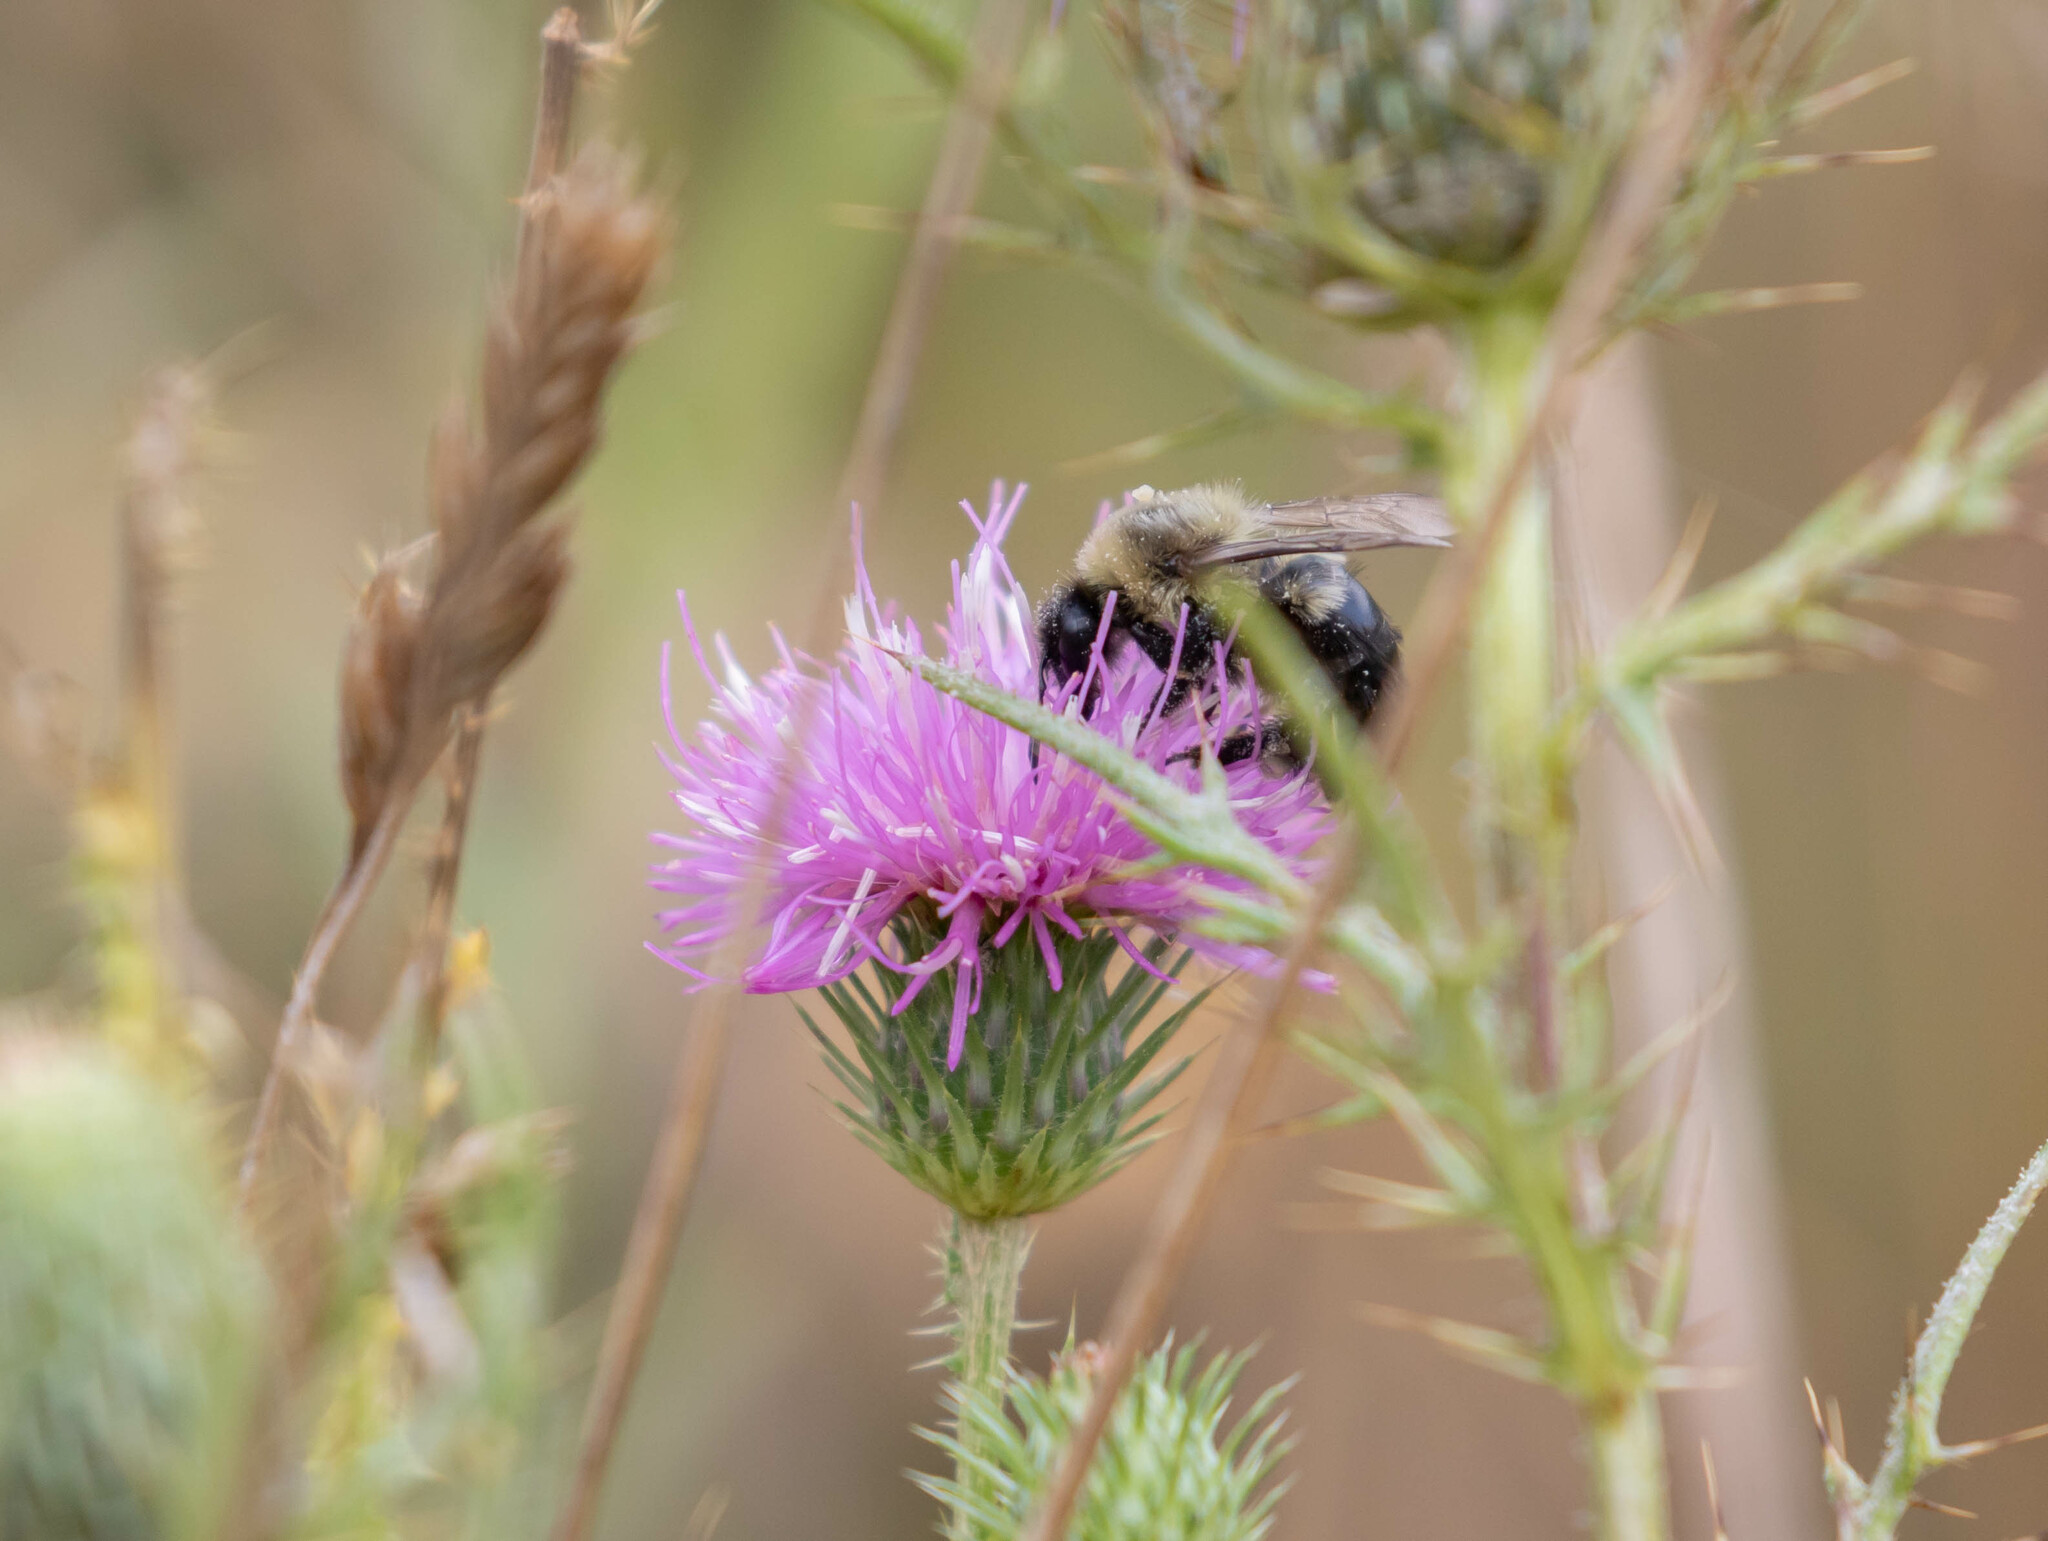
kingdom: Animalia
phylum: Arthropoda
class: Insecta
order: Hymenoptera
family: Apidae
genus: Bombus
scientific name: Bombus impatiens
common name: Common eastern bumble bee
